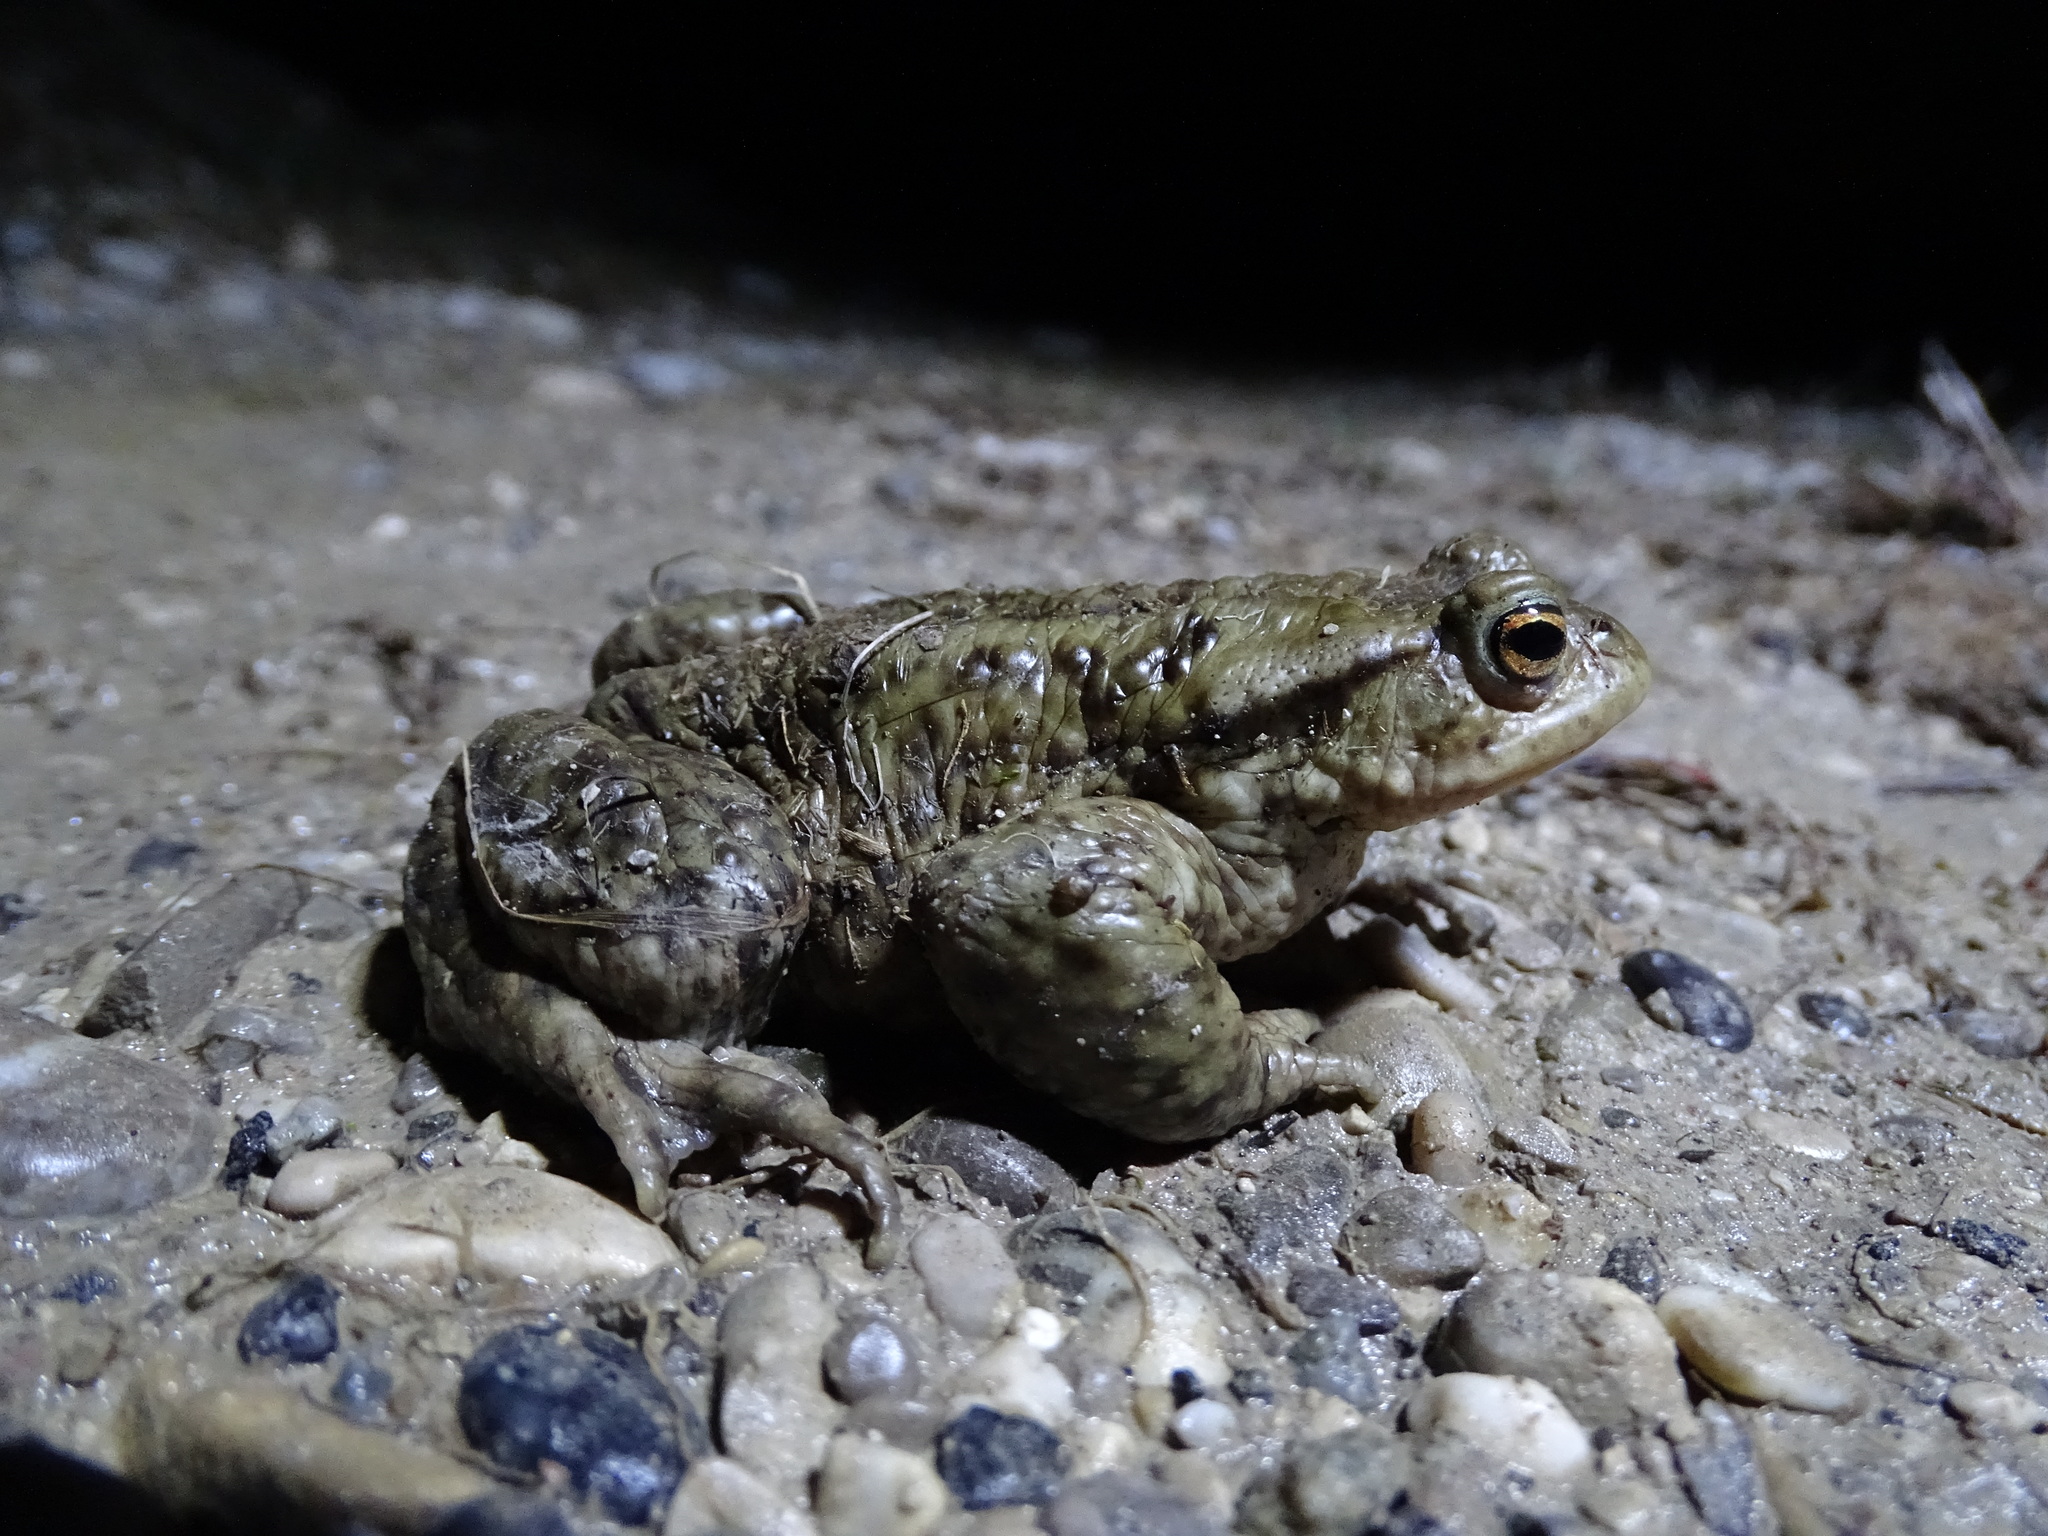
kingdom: Animalia
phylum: Chordata
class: Amphibia
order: Anura
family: Bufonidae
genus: Bufo
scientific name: Bufo bufo
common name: Common toad
